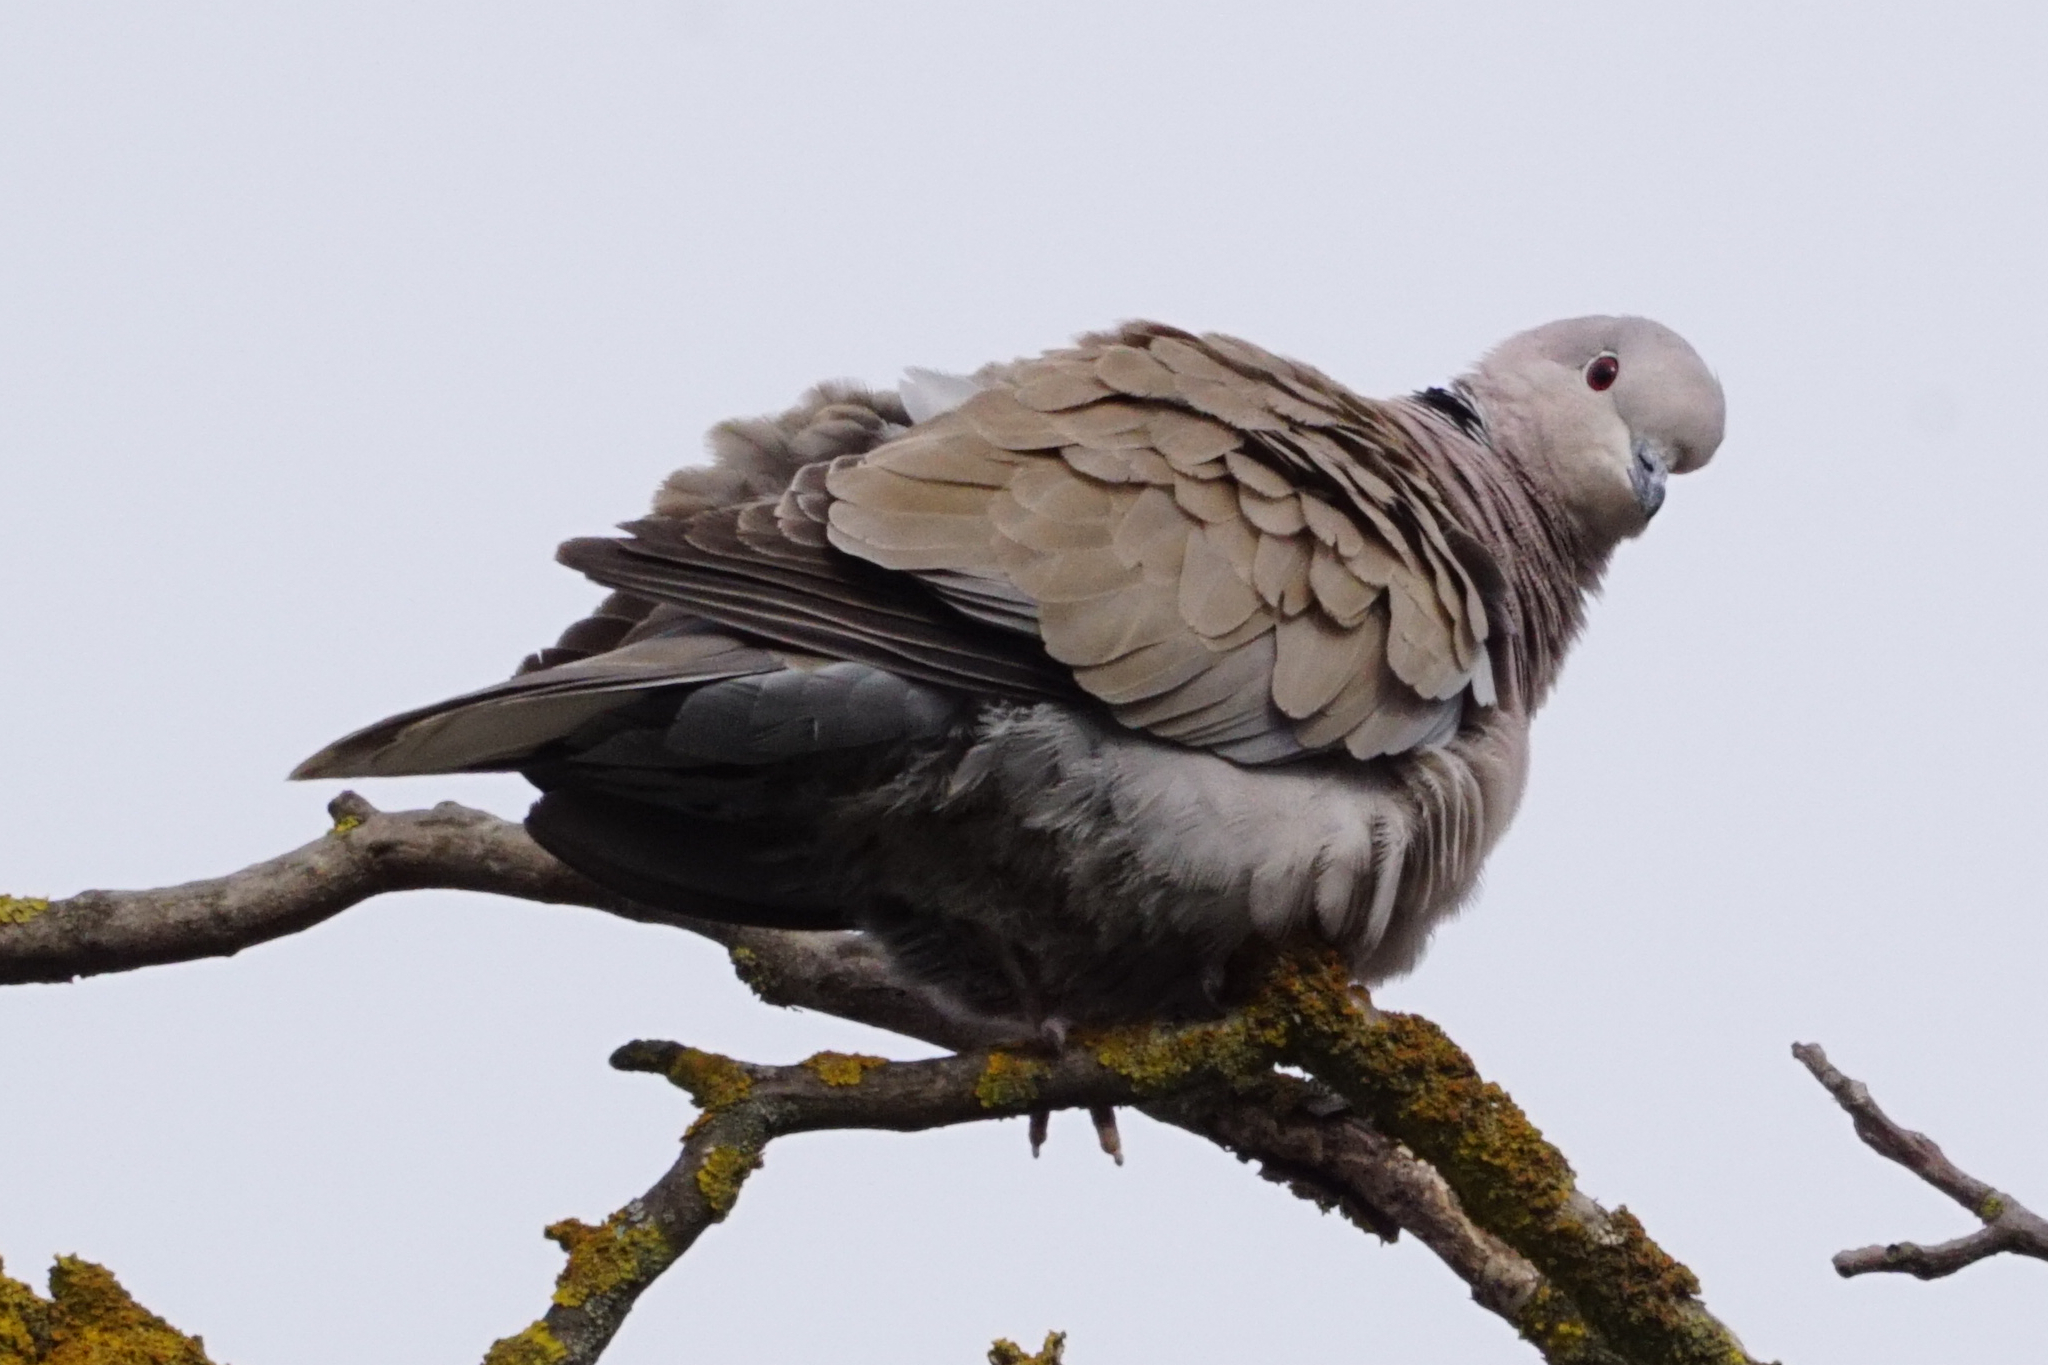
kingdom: Animalia
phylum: Chordata
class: Aves
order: Columbiformes
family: Columbidae
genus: Streptopelia
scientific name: Streptopelia decaocto
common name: Eurasian collared dove
